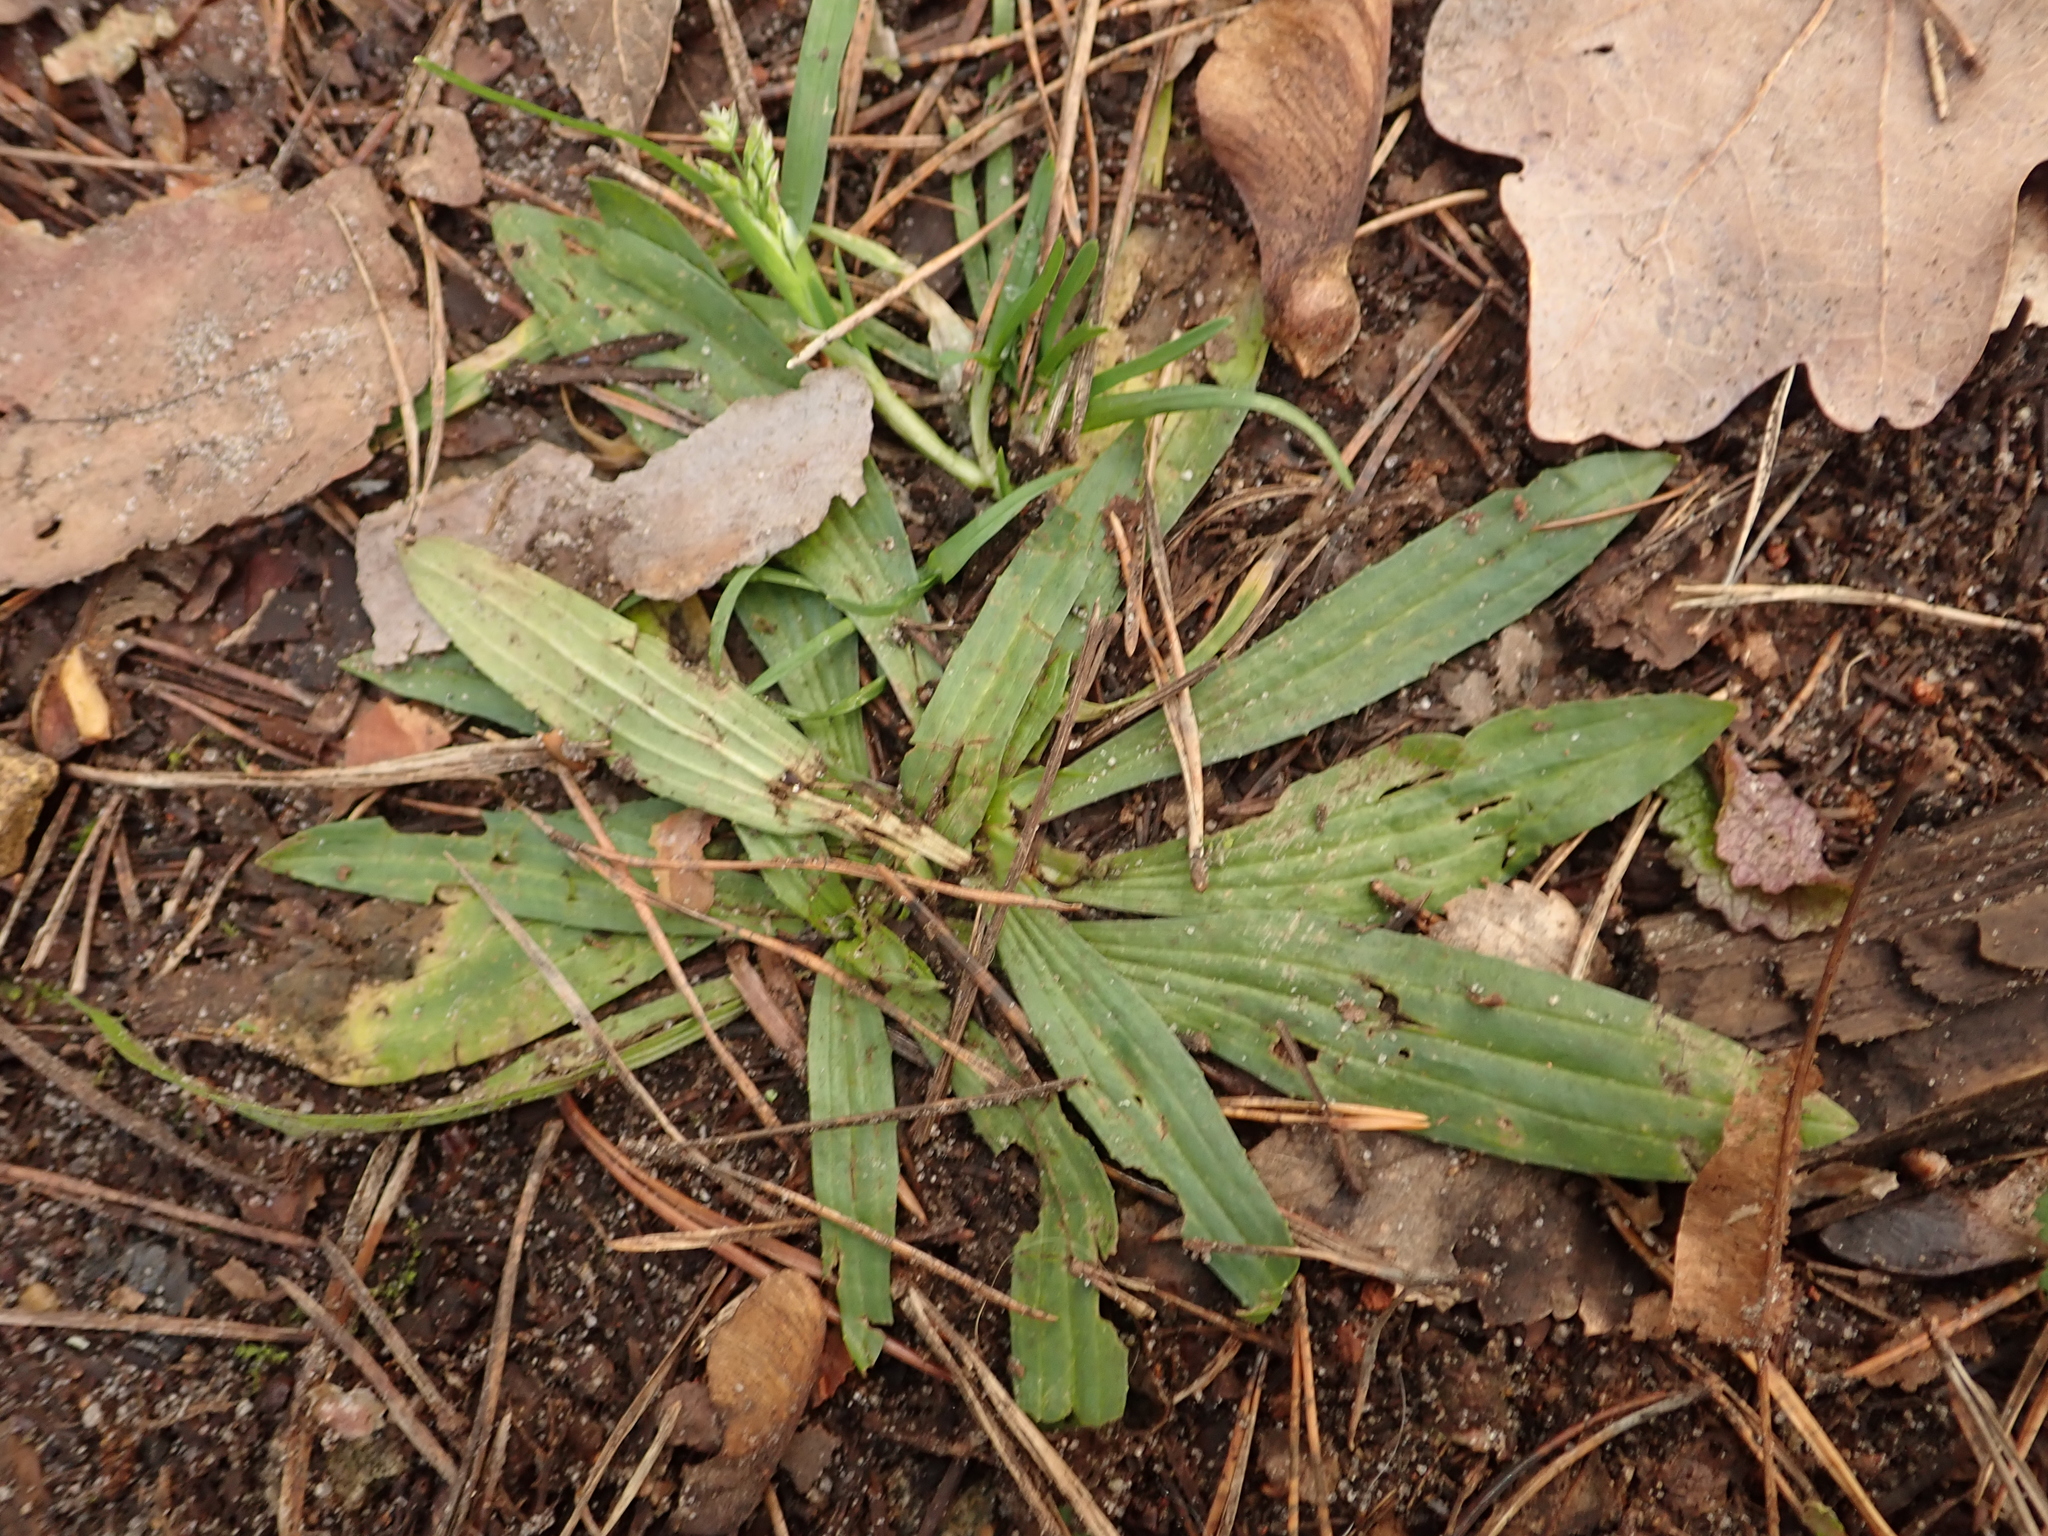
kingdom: Plantae
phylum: Tracheophyta
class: Magnoliopsida
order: Lamiales
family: Plantaginaceae
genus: Plantago
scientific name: Plantago lanceolata
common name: Ribwort plantain
